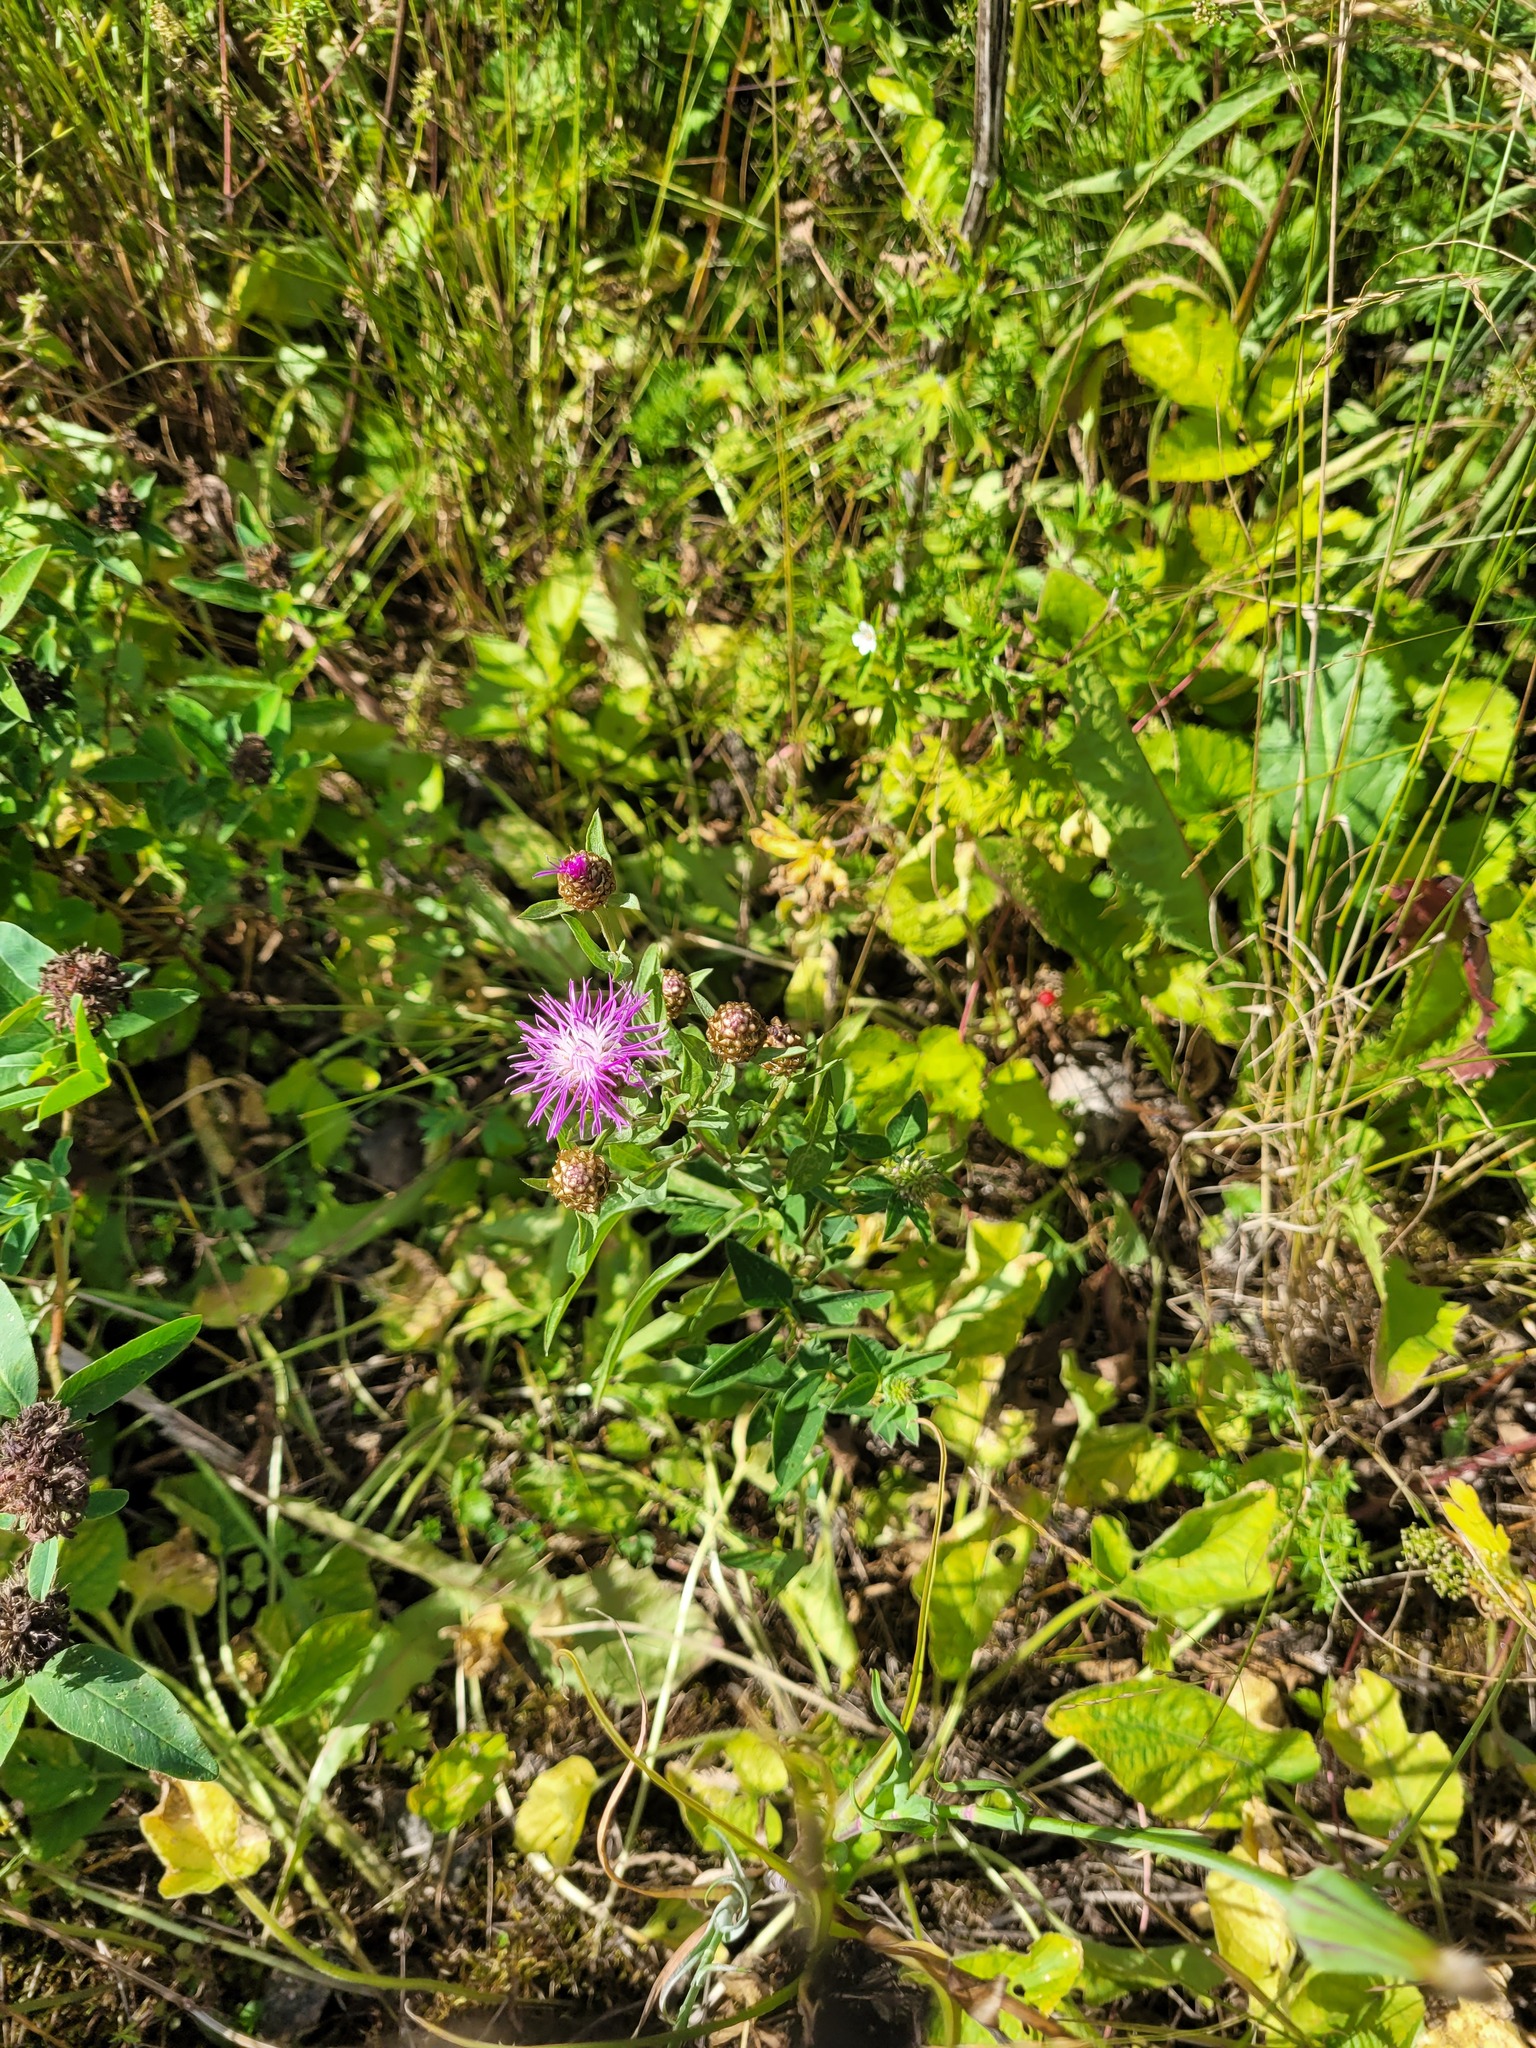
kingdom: Plantae
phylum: Tracheophyta
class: Magnoliopsida
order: Asterales
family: Asteraceae
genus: Centaurea
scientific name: Centaurea jacea
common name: Brown knapweed
